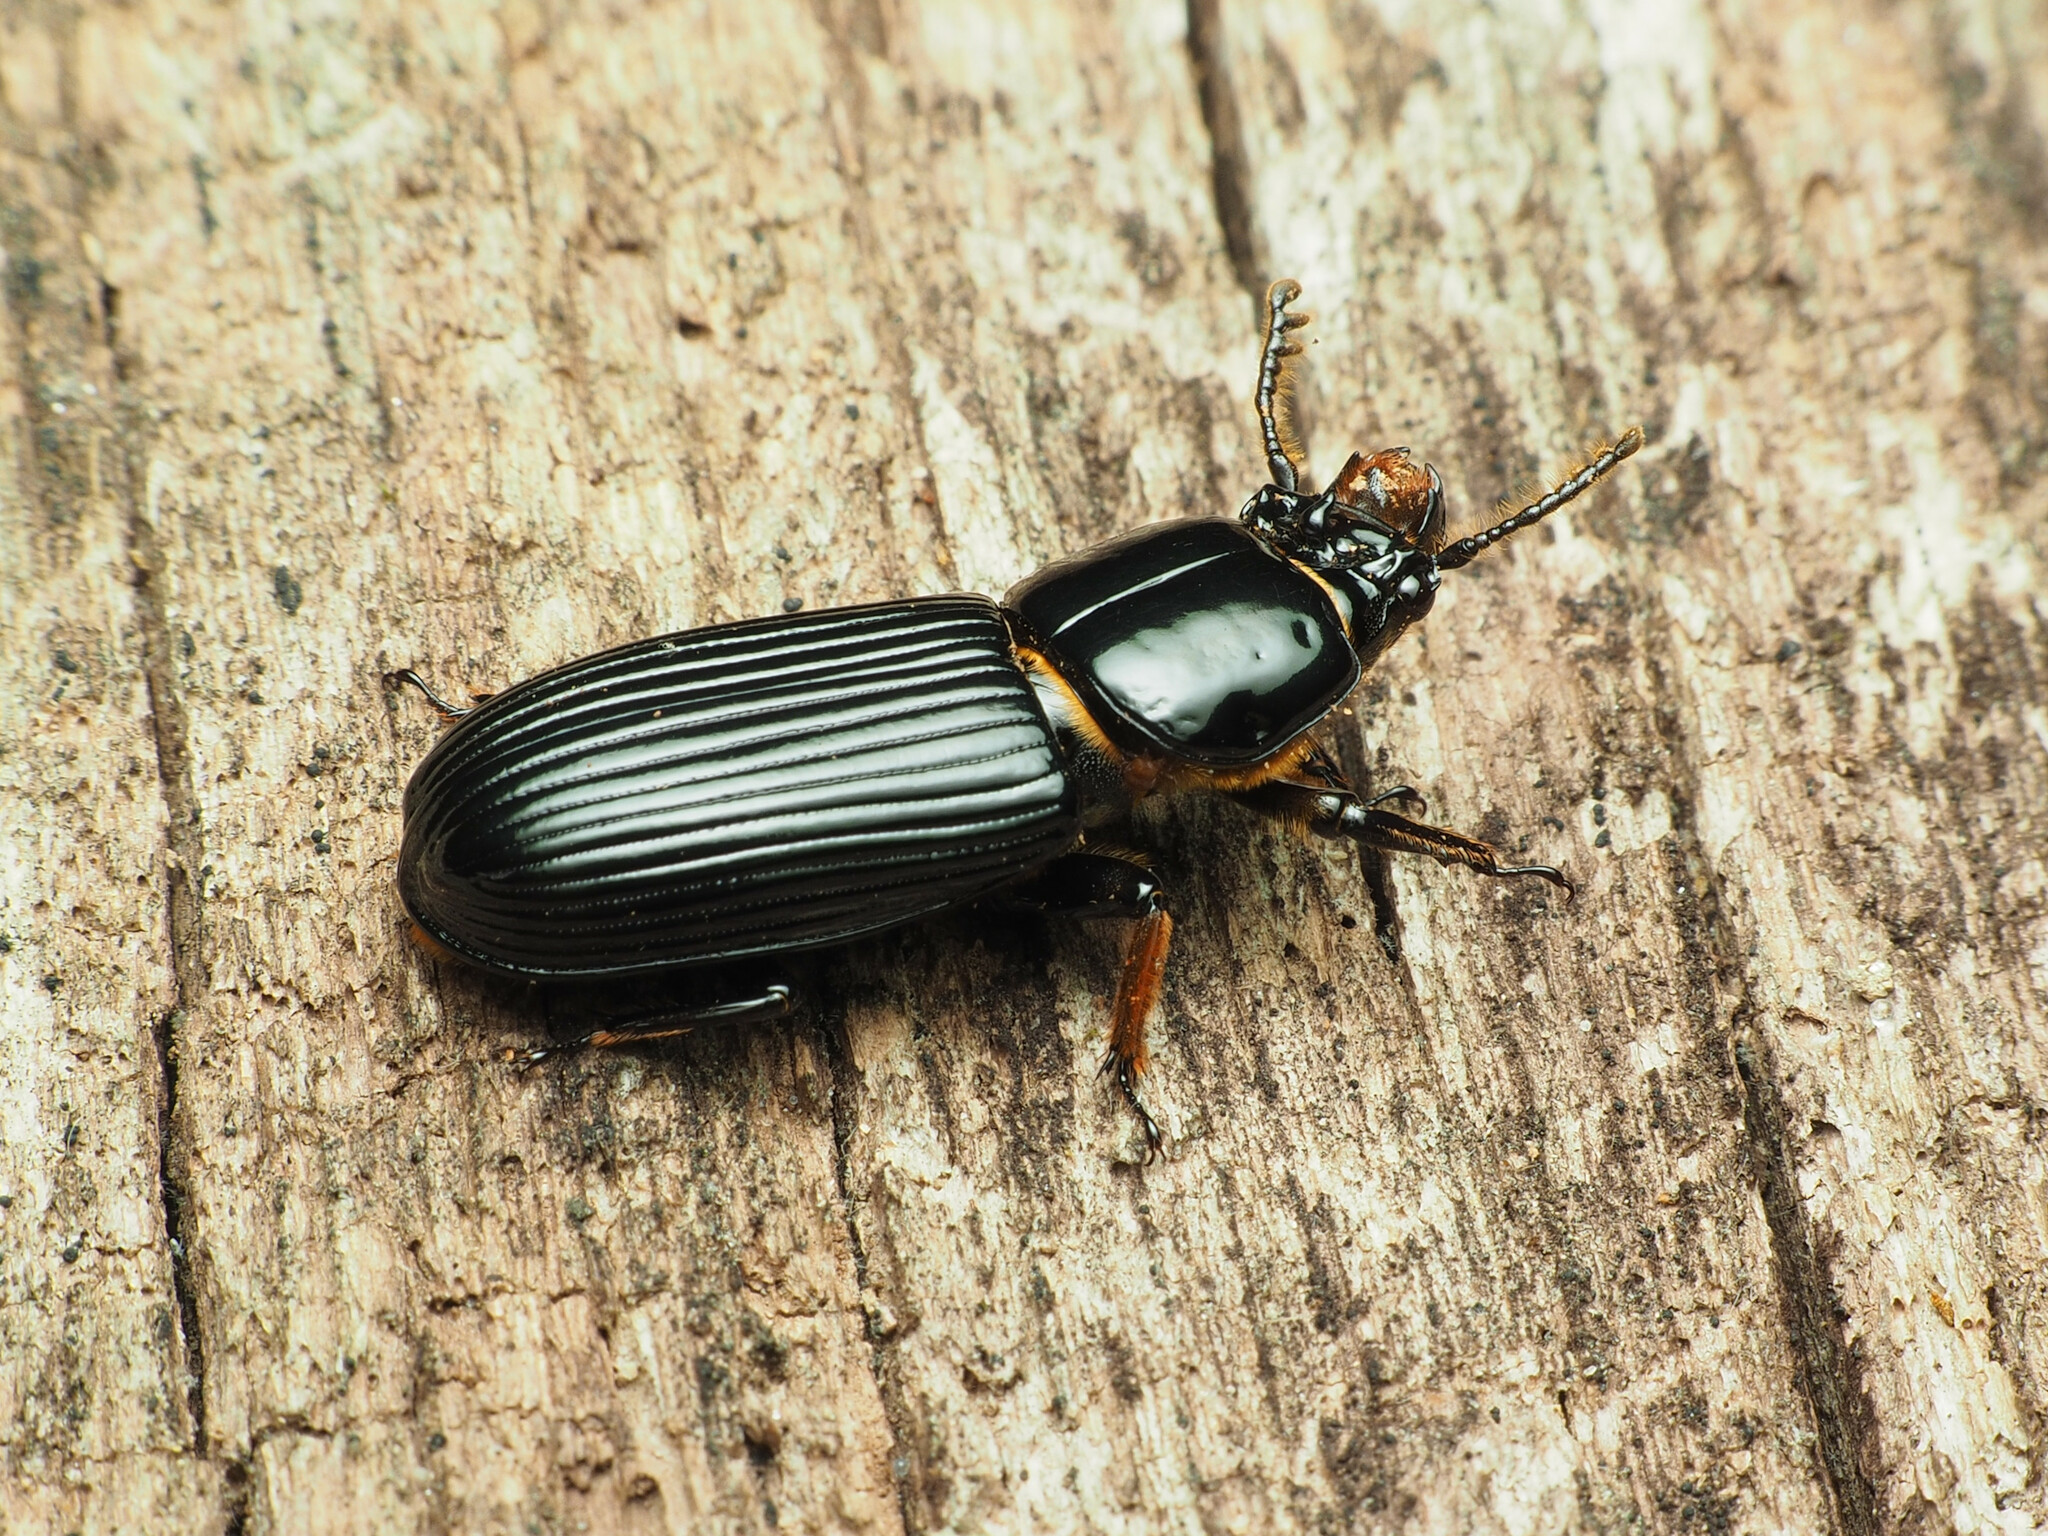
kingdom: Animalia
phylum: Arthropoda
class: Insecta
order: Coleoptera
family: Passalidae
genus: Odontotaenius
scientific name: Odontotaenius disjunctus
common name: Patent leather beetle
